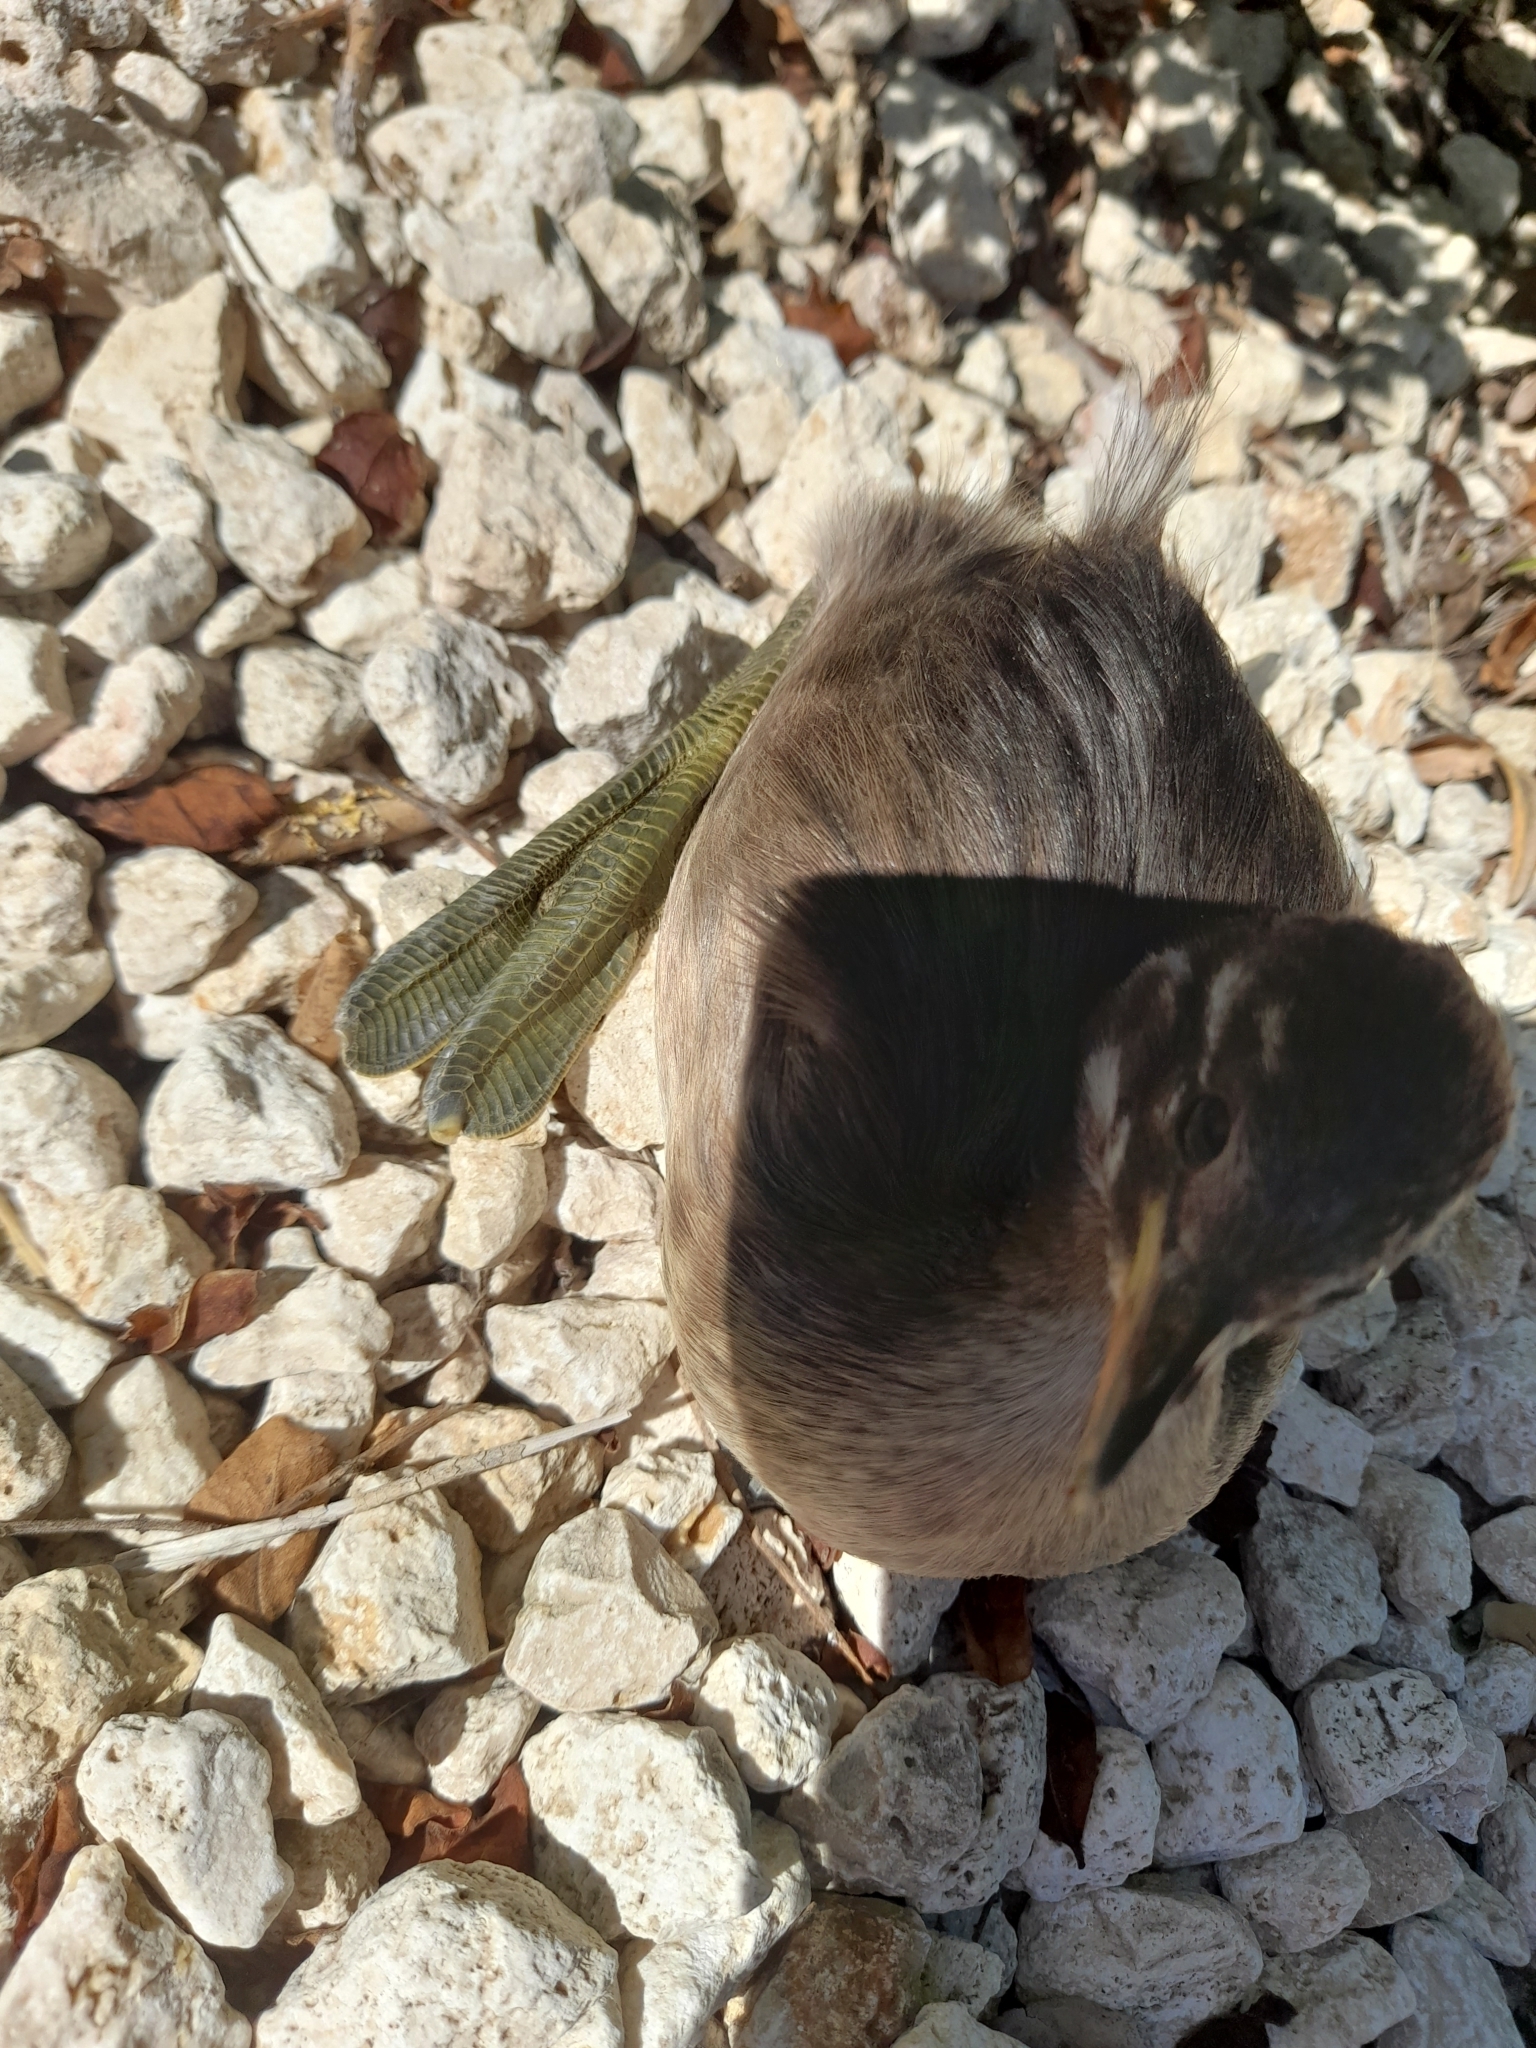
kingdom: Animalia
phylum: Chordata
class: Aves
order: Podicipediformes
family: Podicipedidae
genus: Tachybaptus
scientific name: Tachybaptus ruficollis
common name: Little grebe
